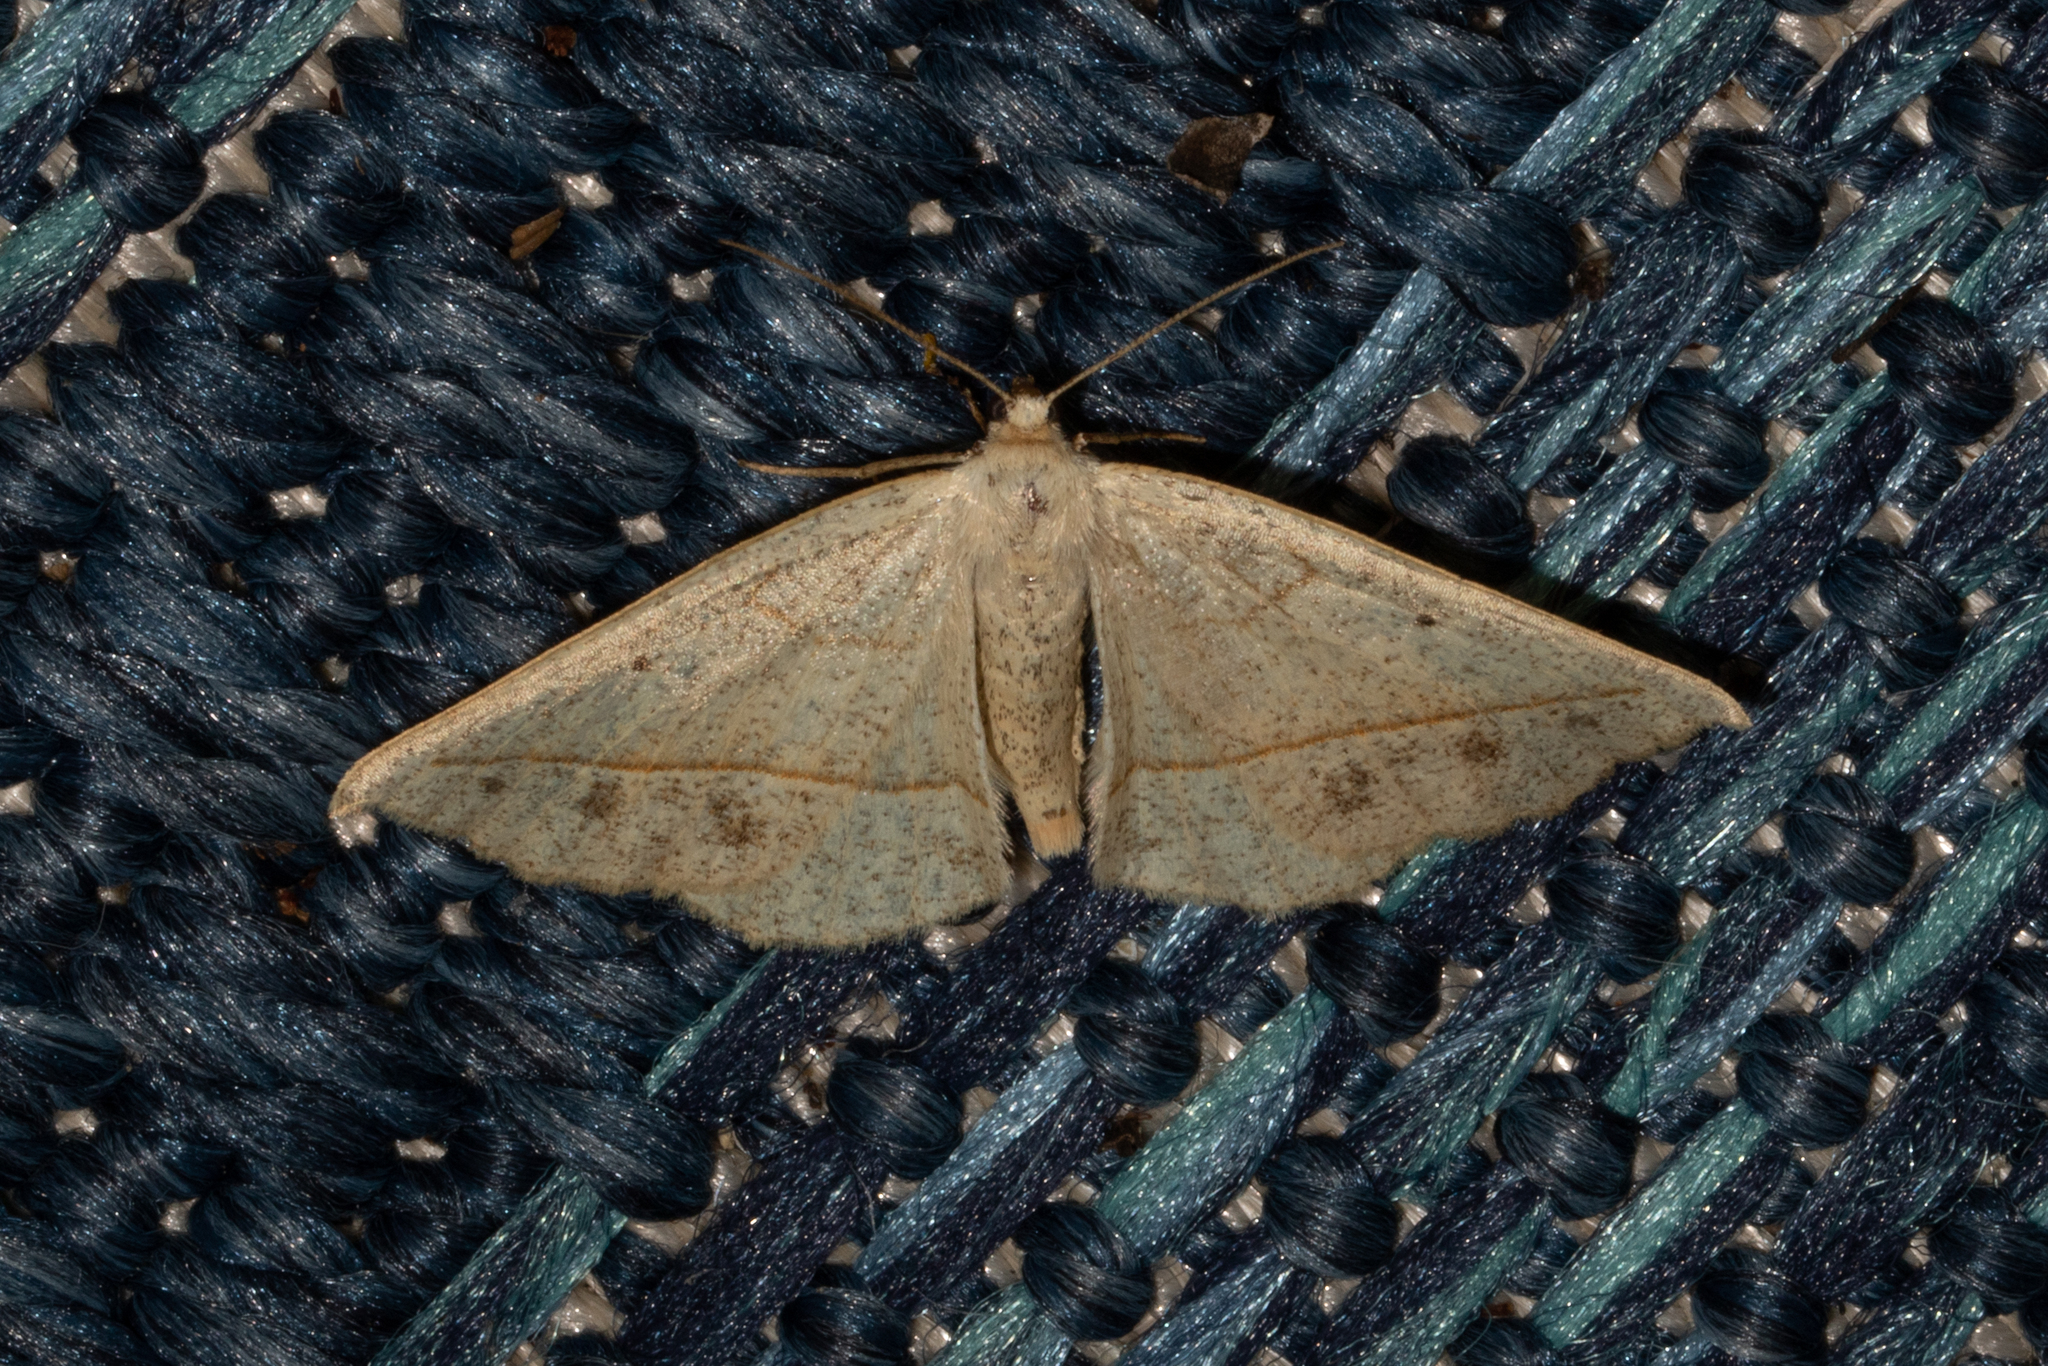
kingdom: Animalia
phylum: Arthropoda
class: Insecta
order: Lepidoptera
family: Geometridae
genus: Eusarca
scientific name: Eusarca confusaria
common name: Confused eusarca
